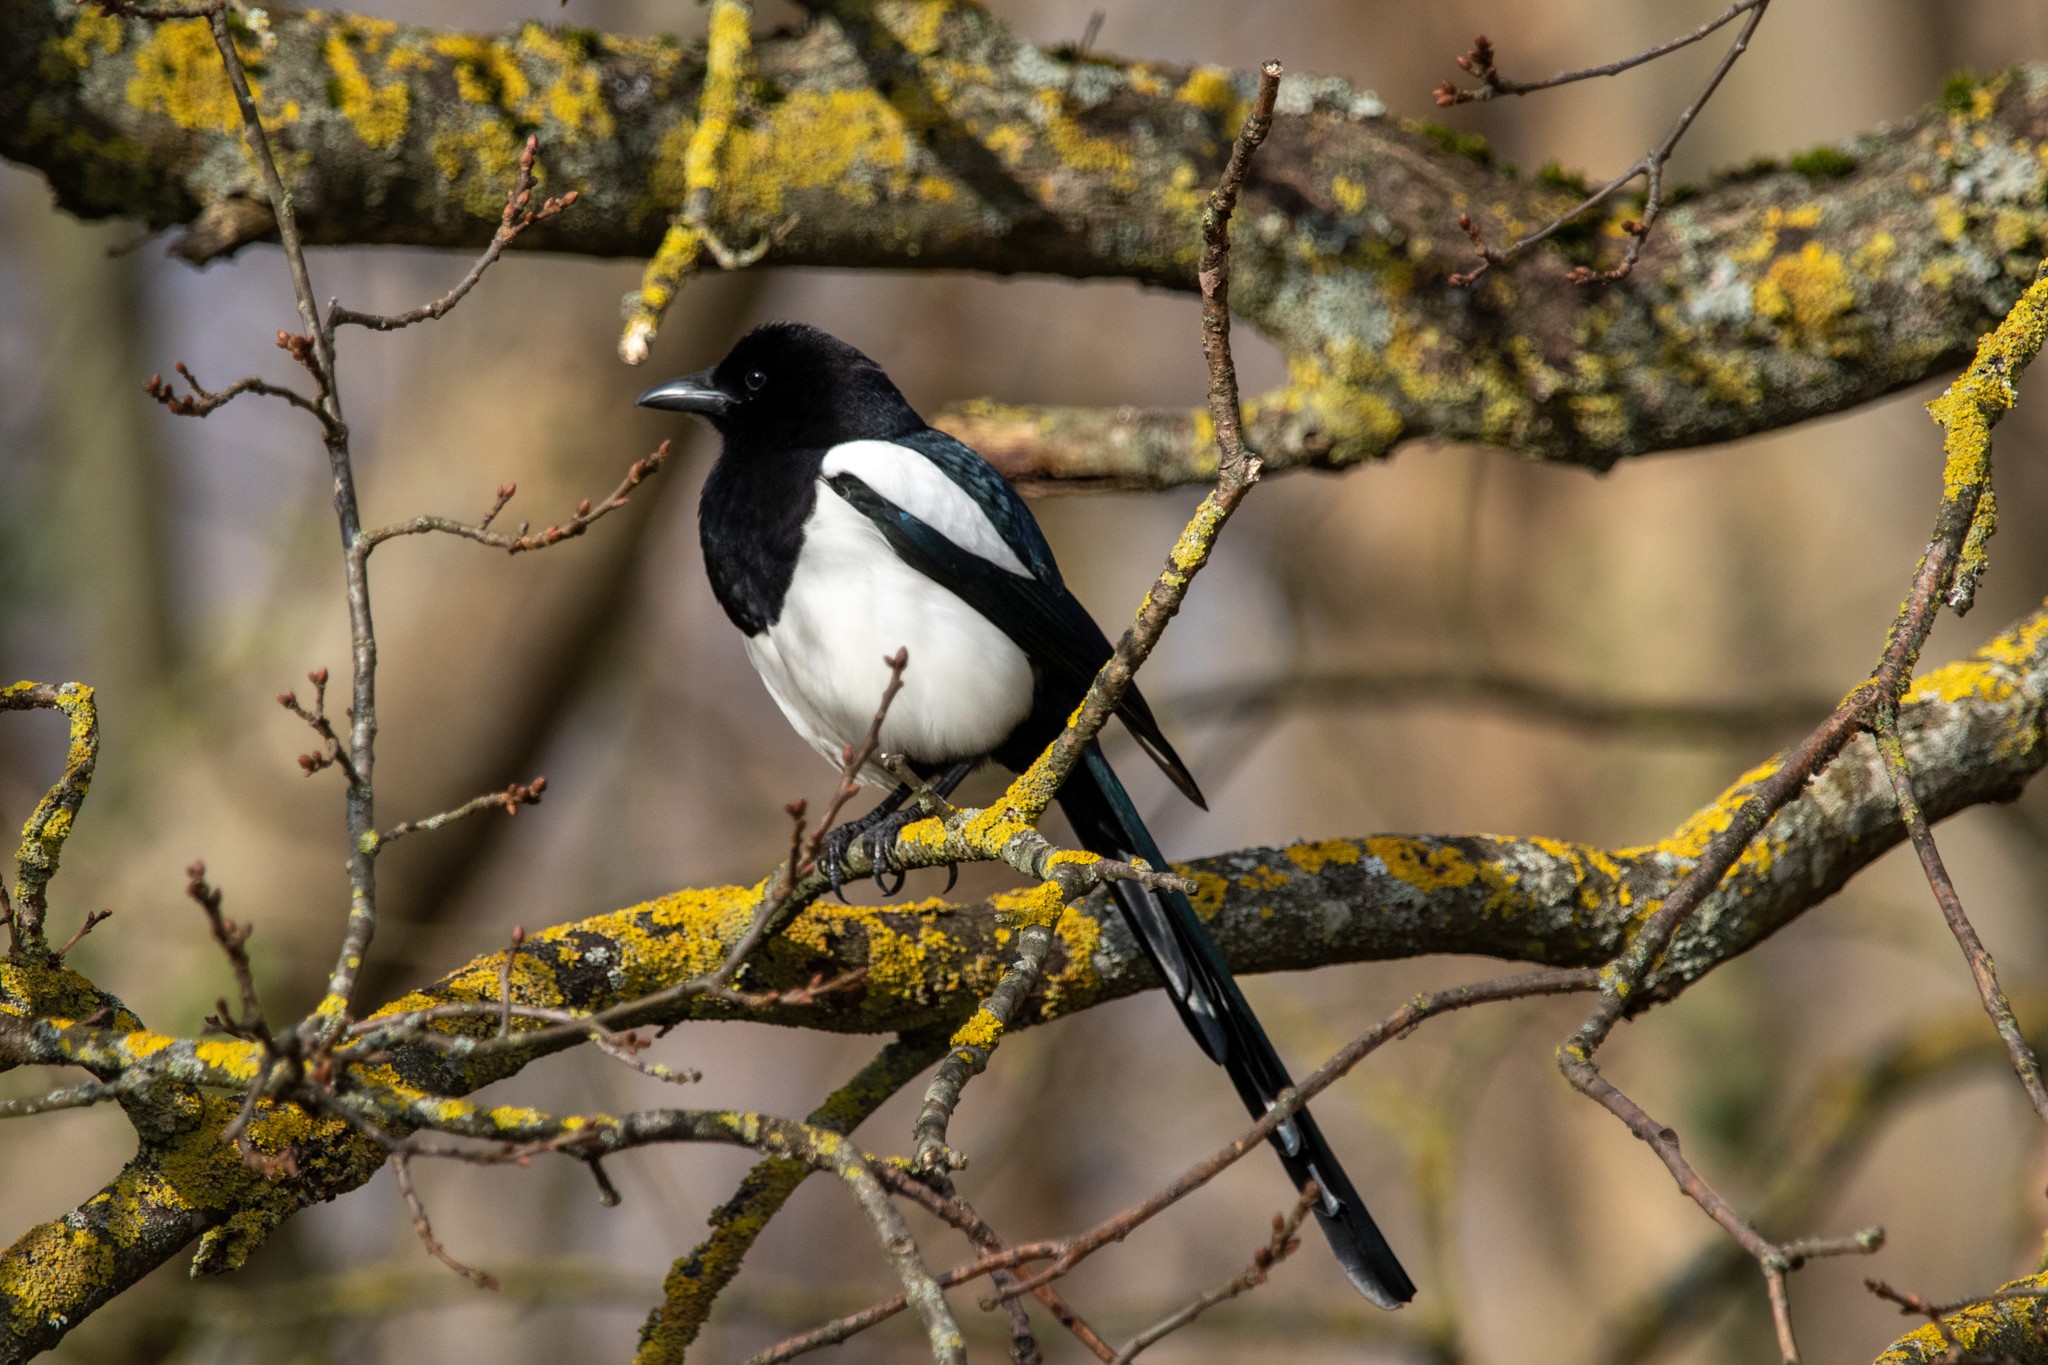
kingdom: Animalia
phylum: Chordata
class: Aves
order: Passeriformes
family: Corvidae
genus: Pica
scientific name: Pica pica
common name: Eurasian magpie
